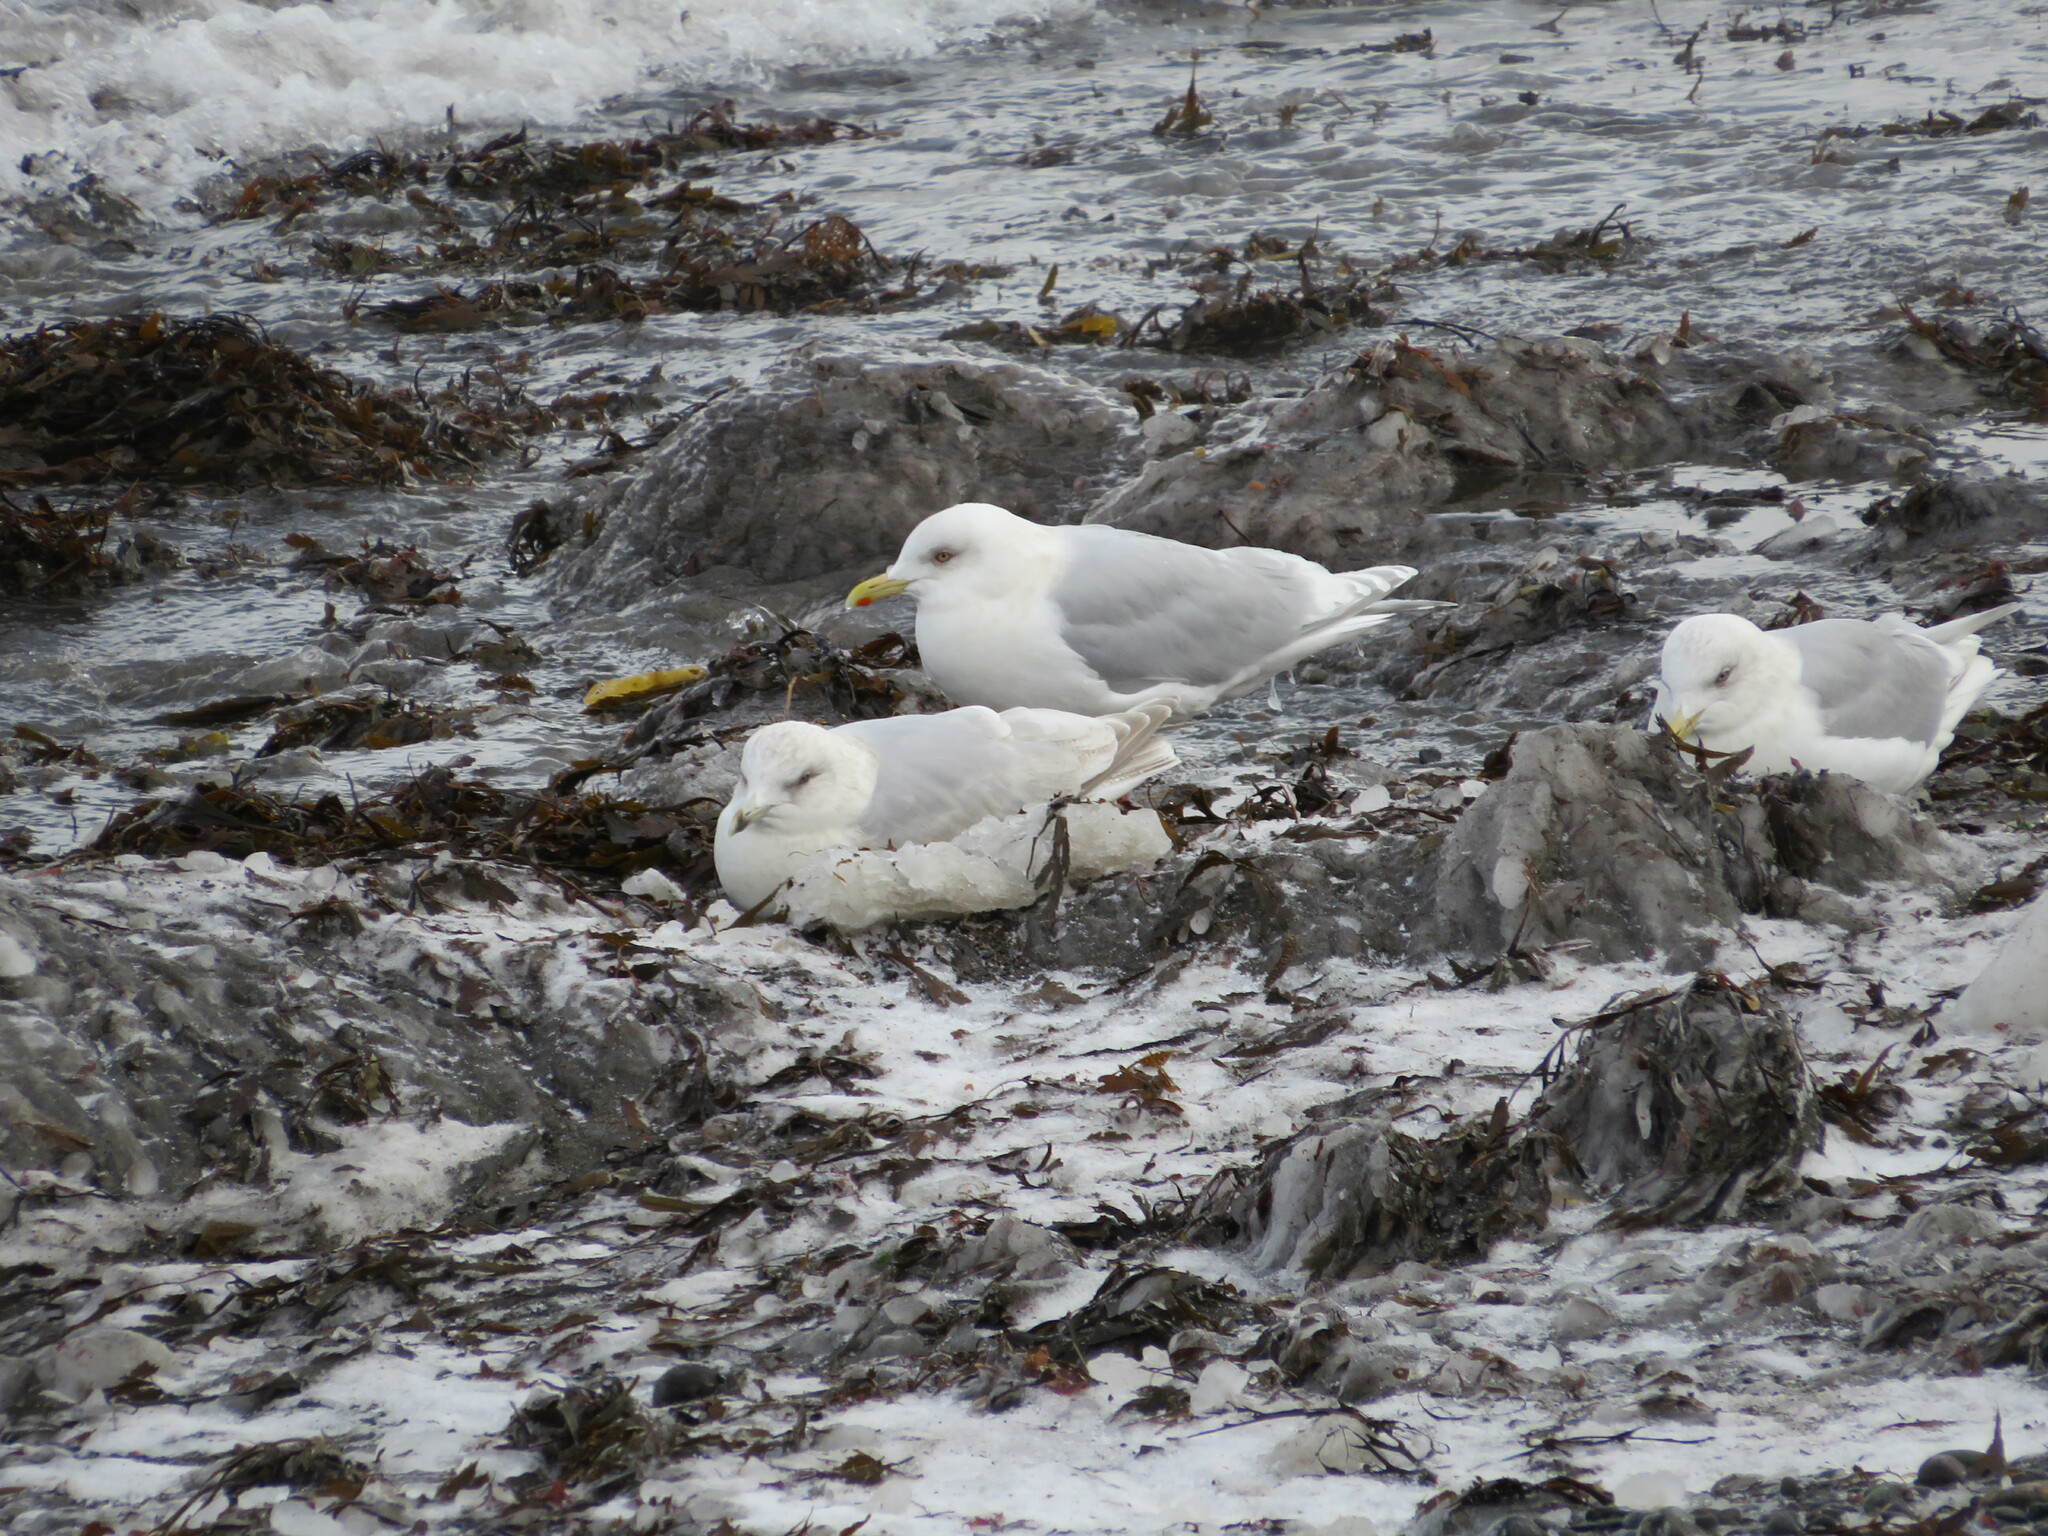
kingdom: Animalia
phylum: Chordata
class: Aves
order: Charadriiformes
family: Laridae
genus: Larus
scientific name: Larus glaucoides
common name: Iceland gull
